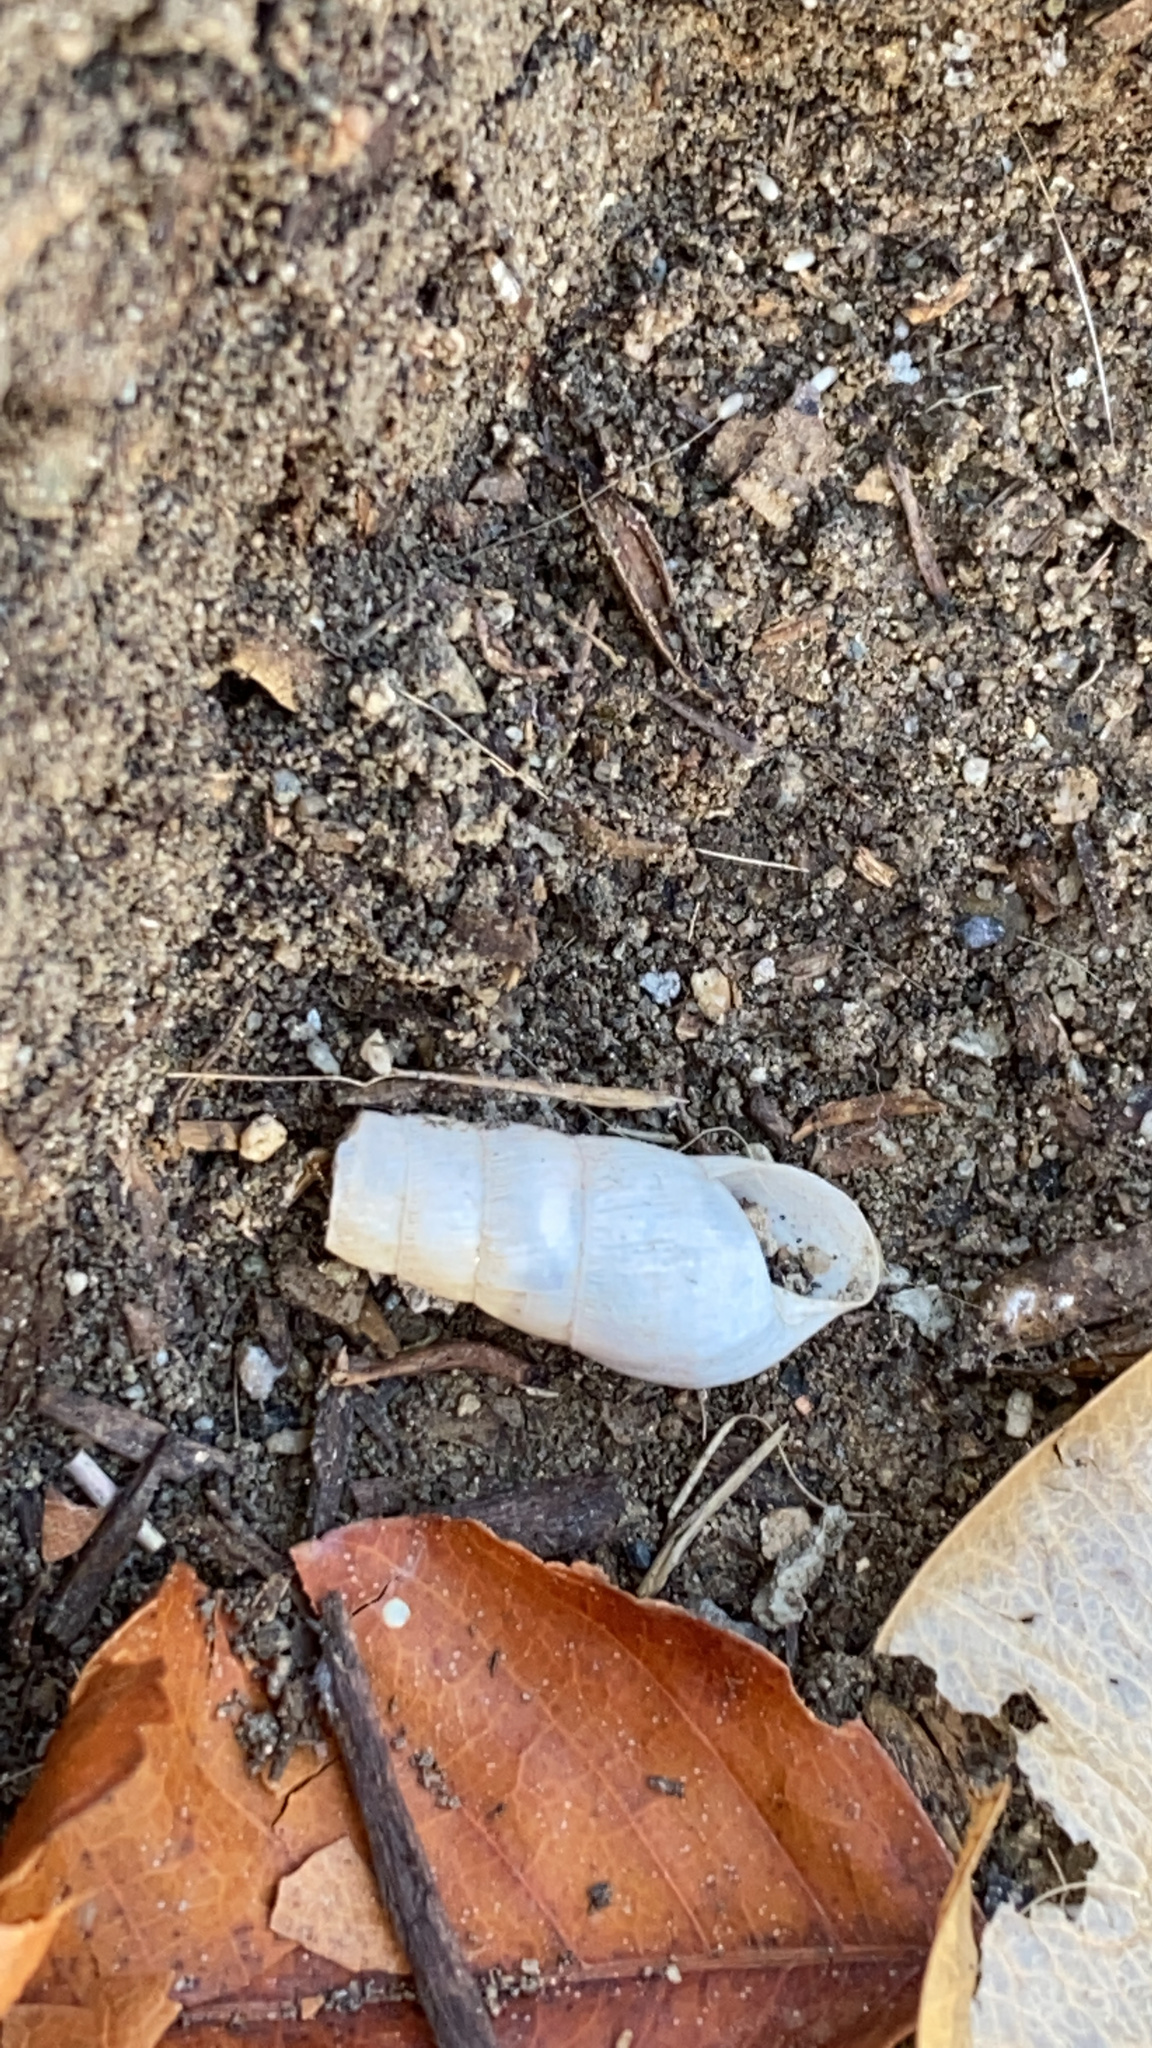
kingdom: Animalia
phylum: Mollusca
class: Gastropoda
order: Stylommatophora
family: Achatinidae
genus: Rumina
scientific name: Rumina decollata
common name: Decollate snail
